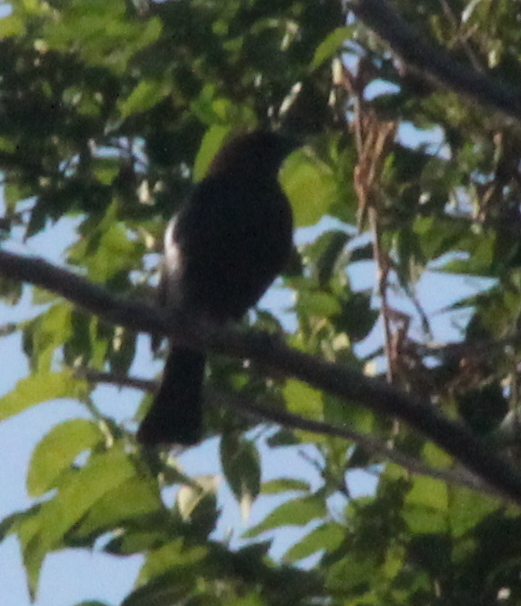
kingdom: Animalia
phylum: Chordata
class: Aves
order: Passeriformes
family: Icteridae
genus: Molothrus
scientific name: Molothrus ater
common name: Brown-headed cowbird
